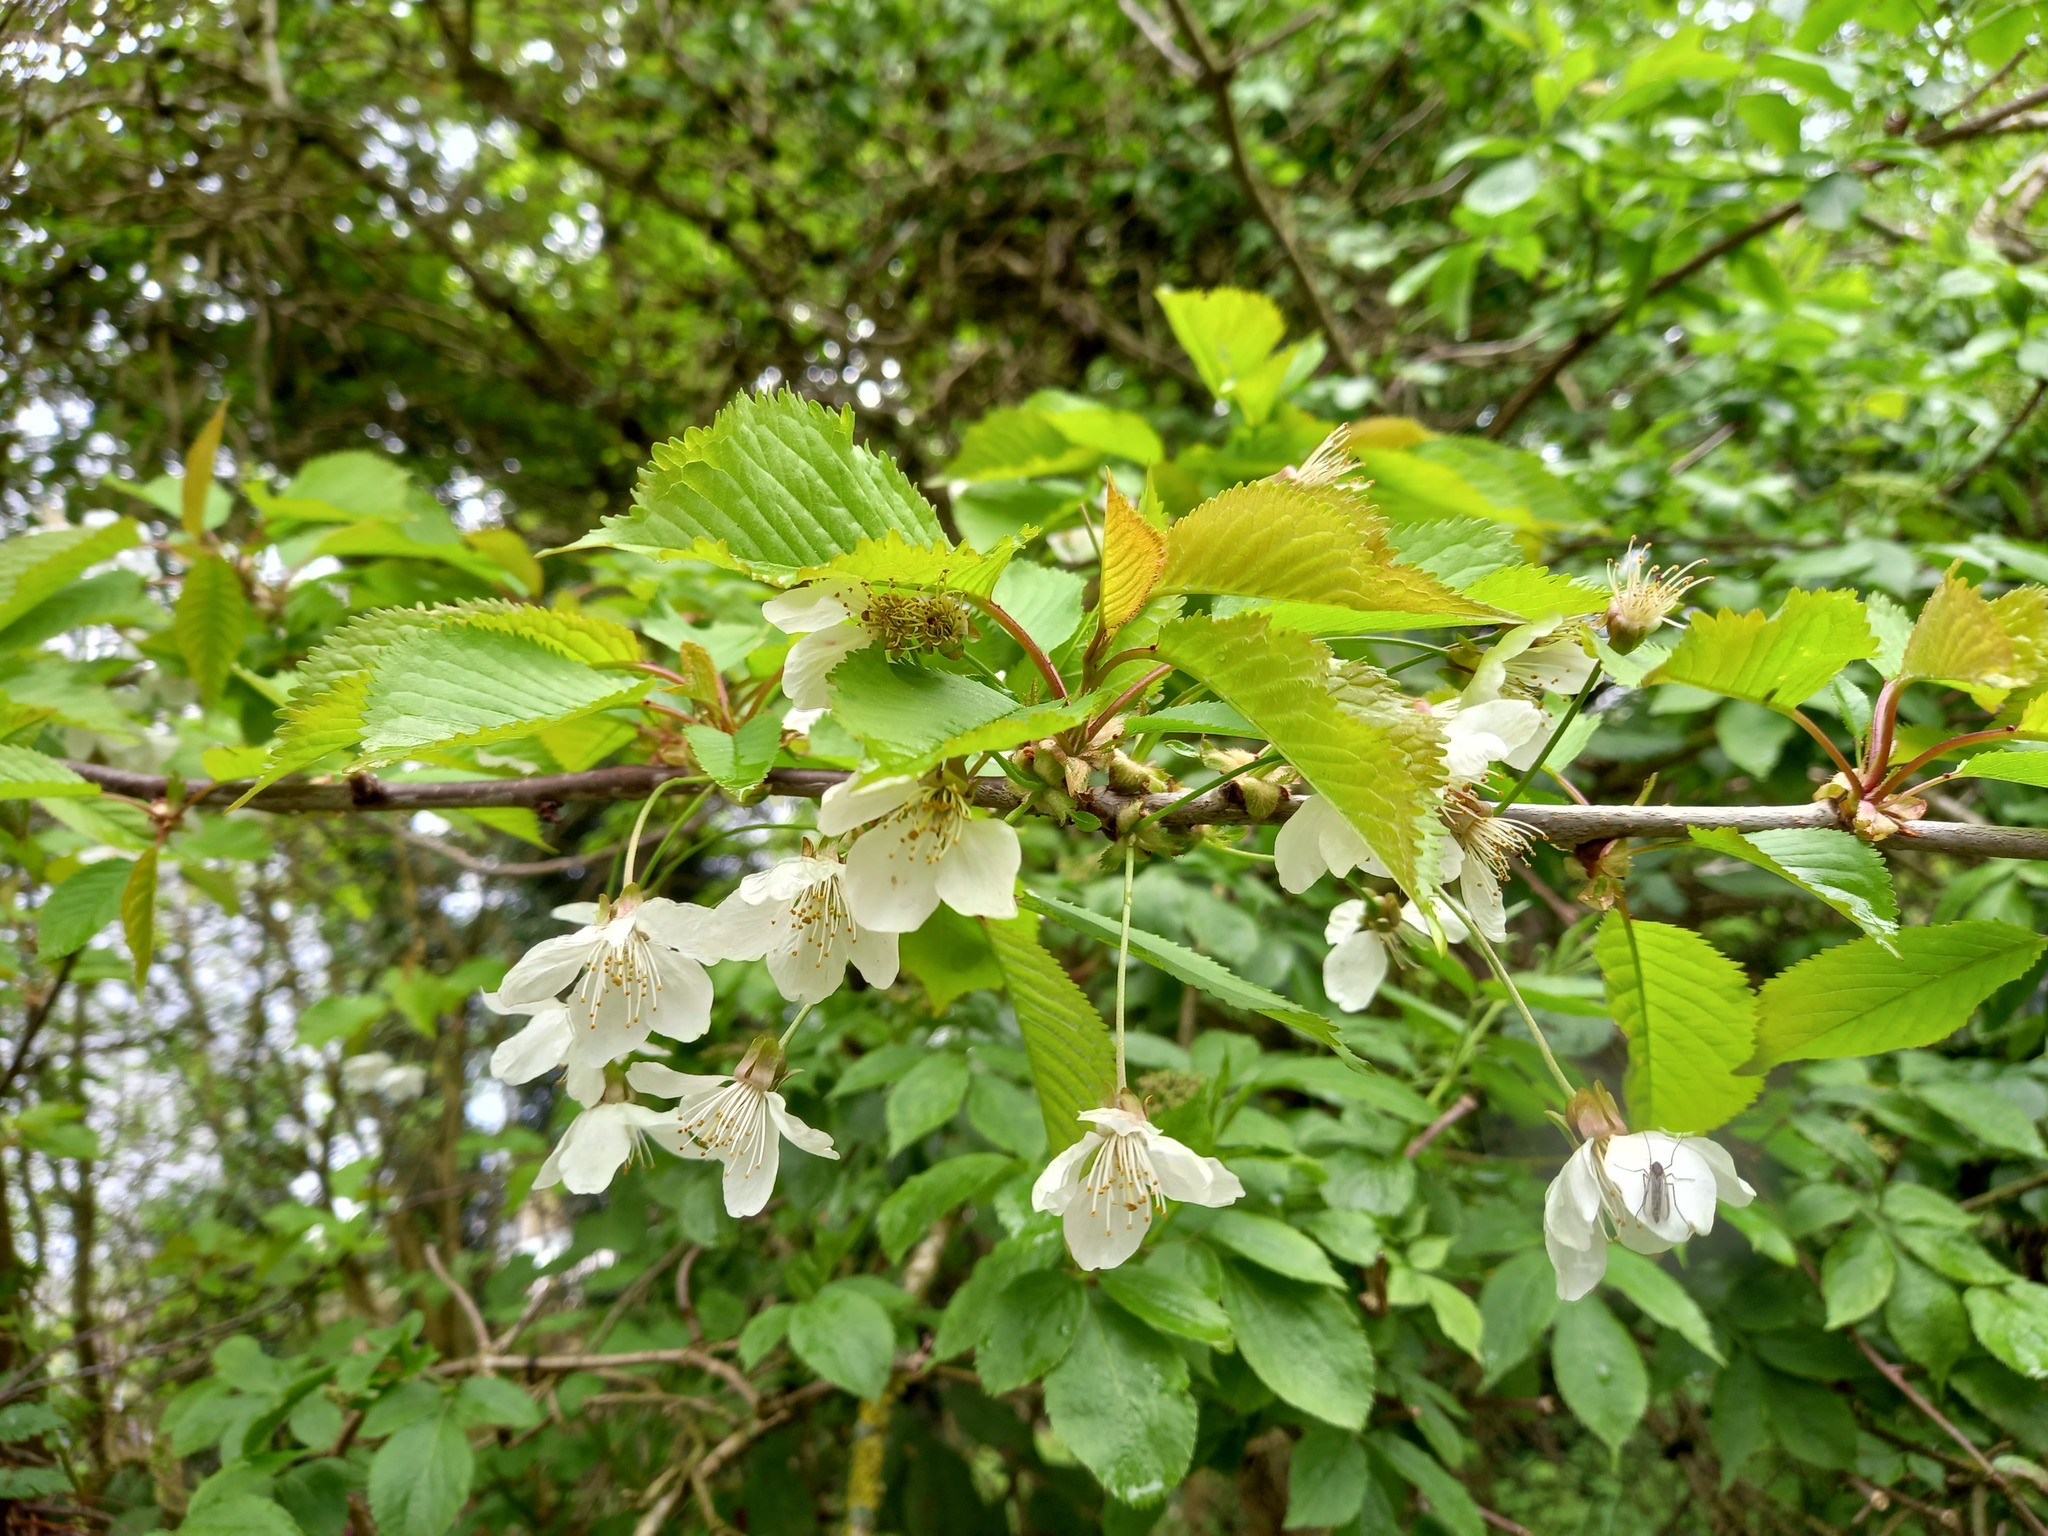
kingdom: Plantae
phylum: Tracheophyta
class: Magnoliopsida
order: Rosales
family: Rosaceae
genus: Prunus
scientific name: Prunus avium
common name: Sweet cherry
